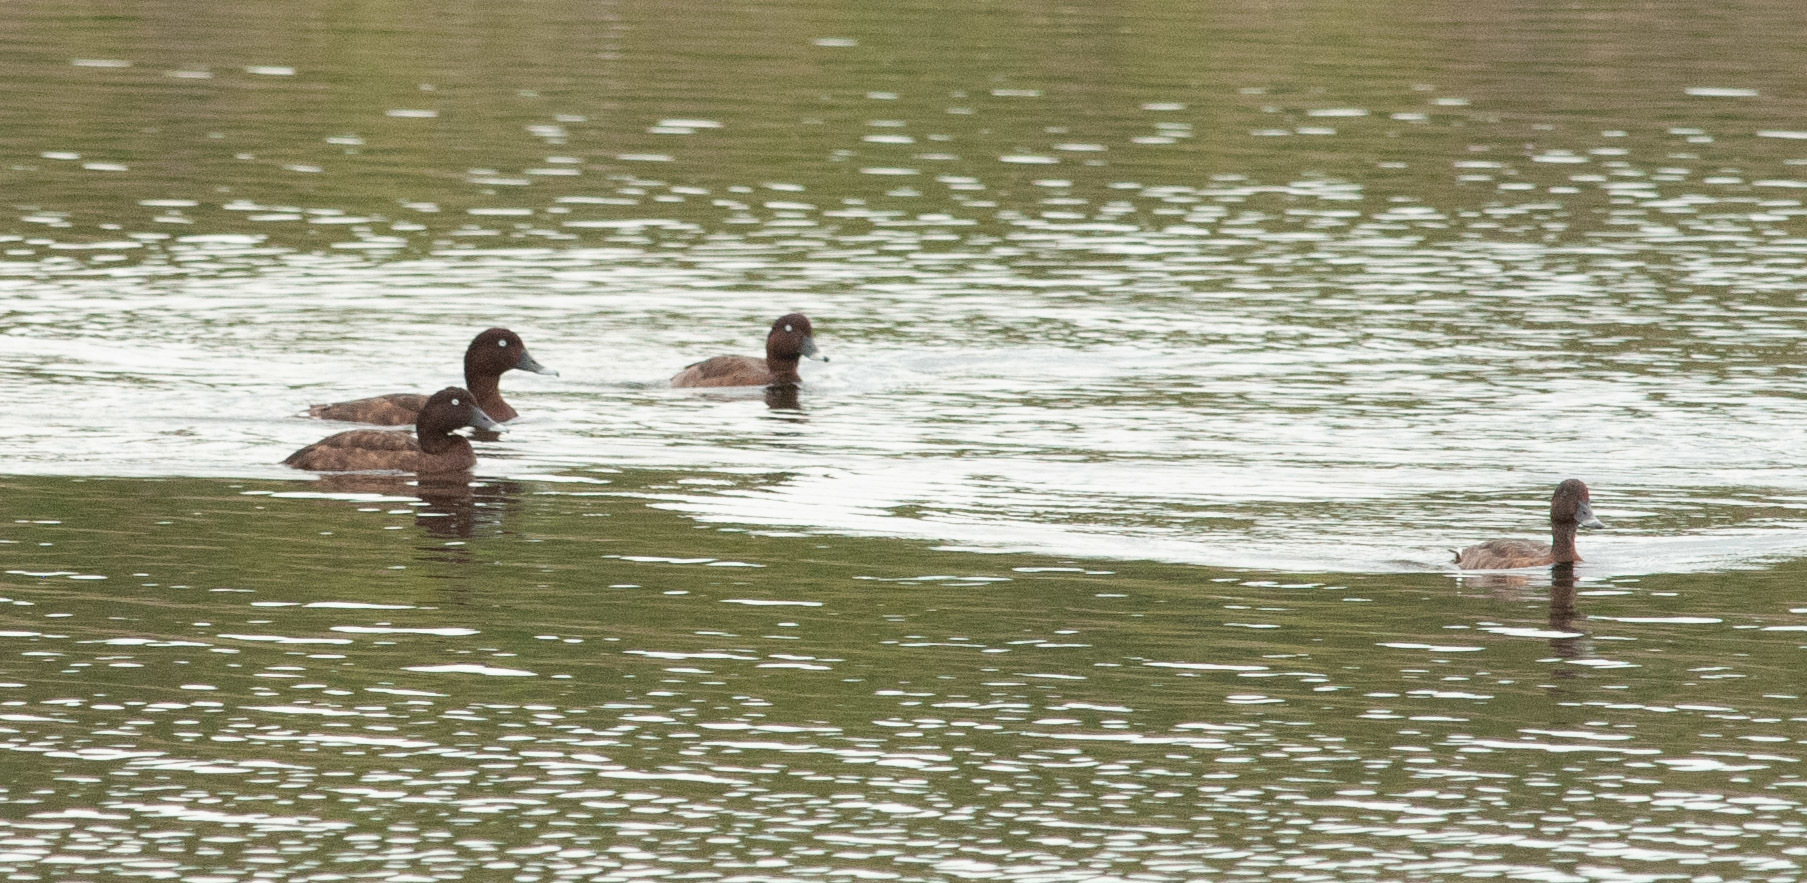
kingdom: Animalia
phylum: Chordata
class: Aves
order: Anseriformes
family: Anatidae
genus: Aythya
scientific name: Aythya australis
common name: Hardhead
